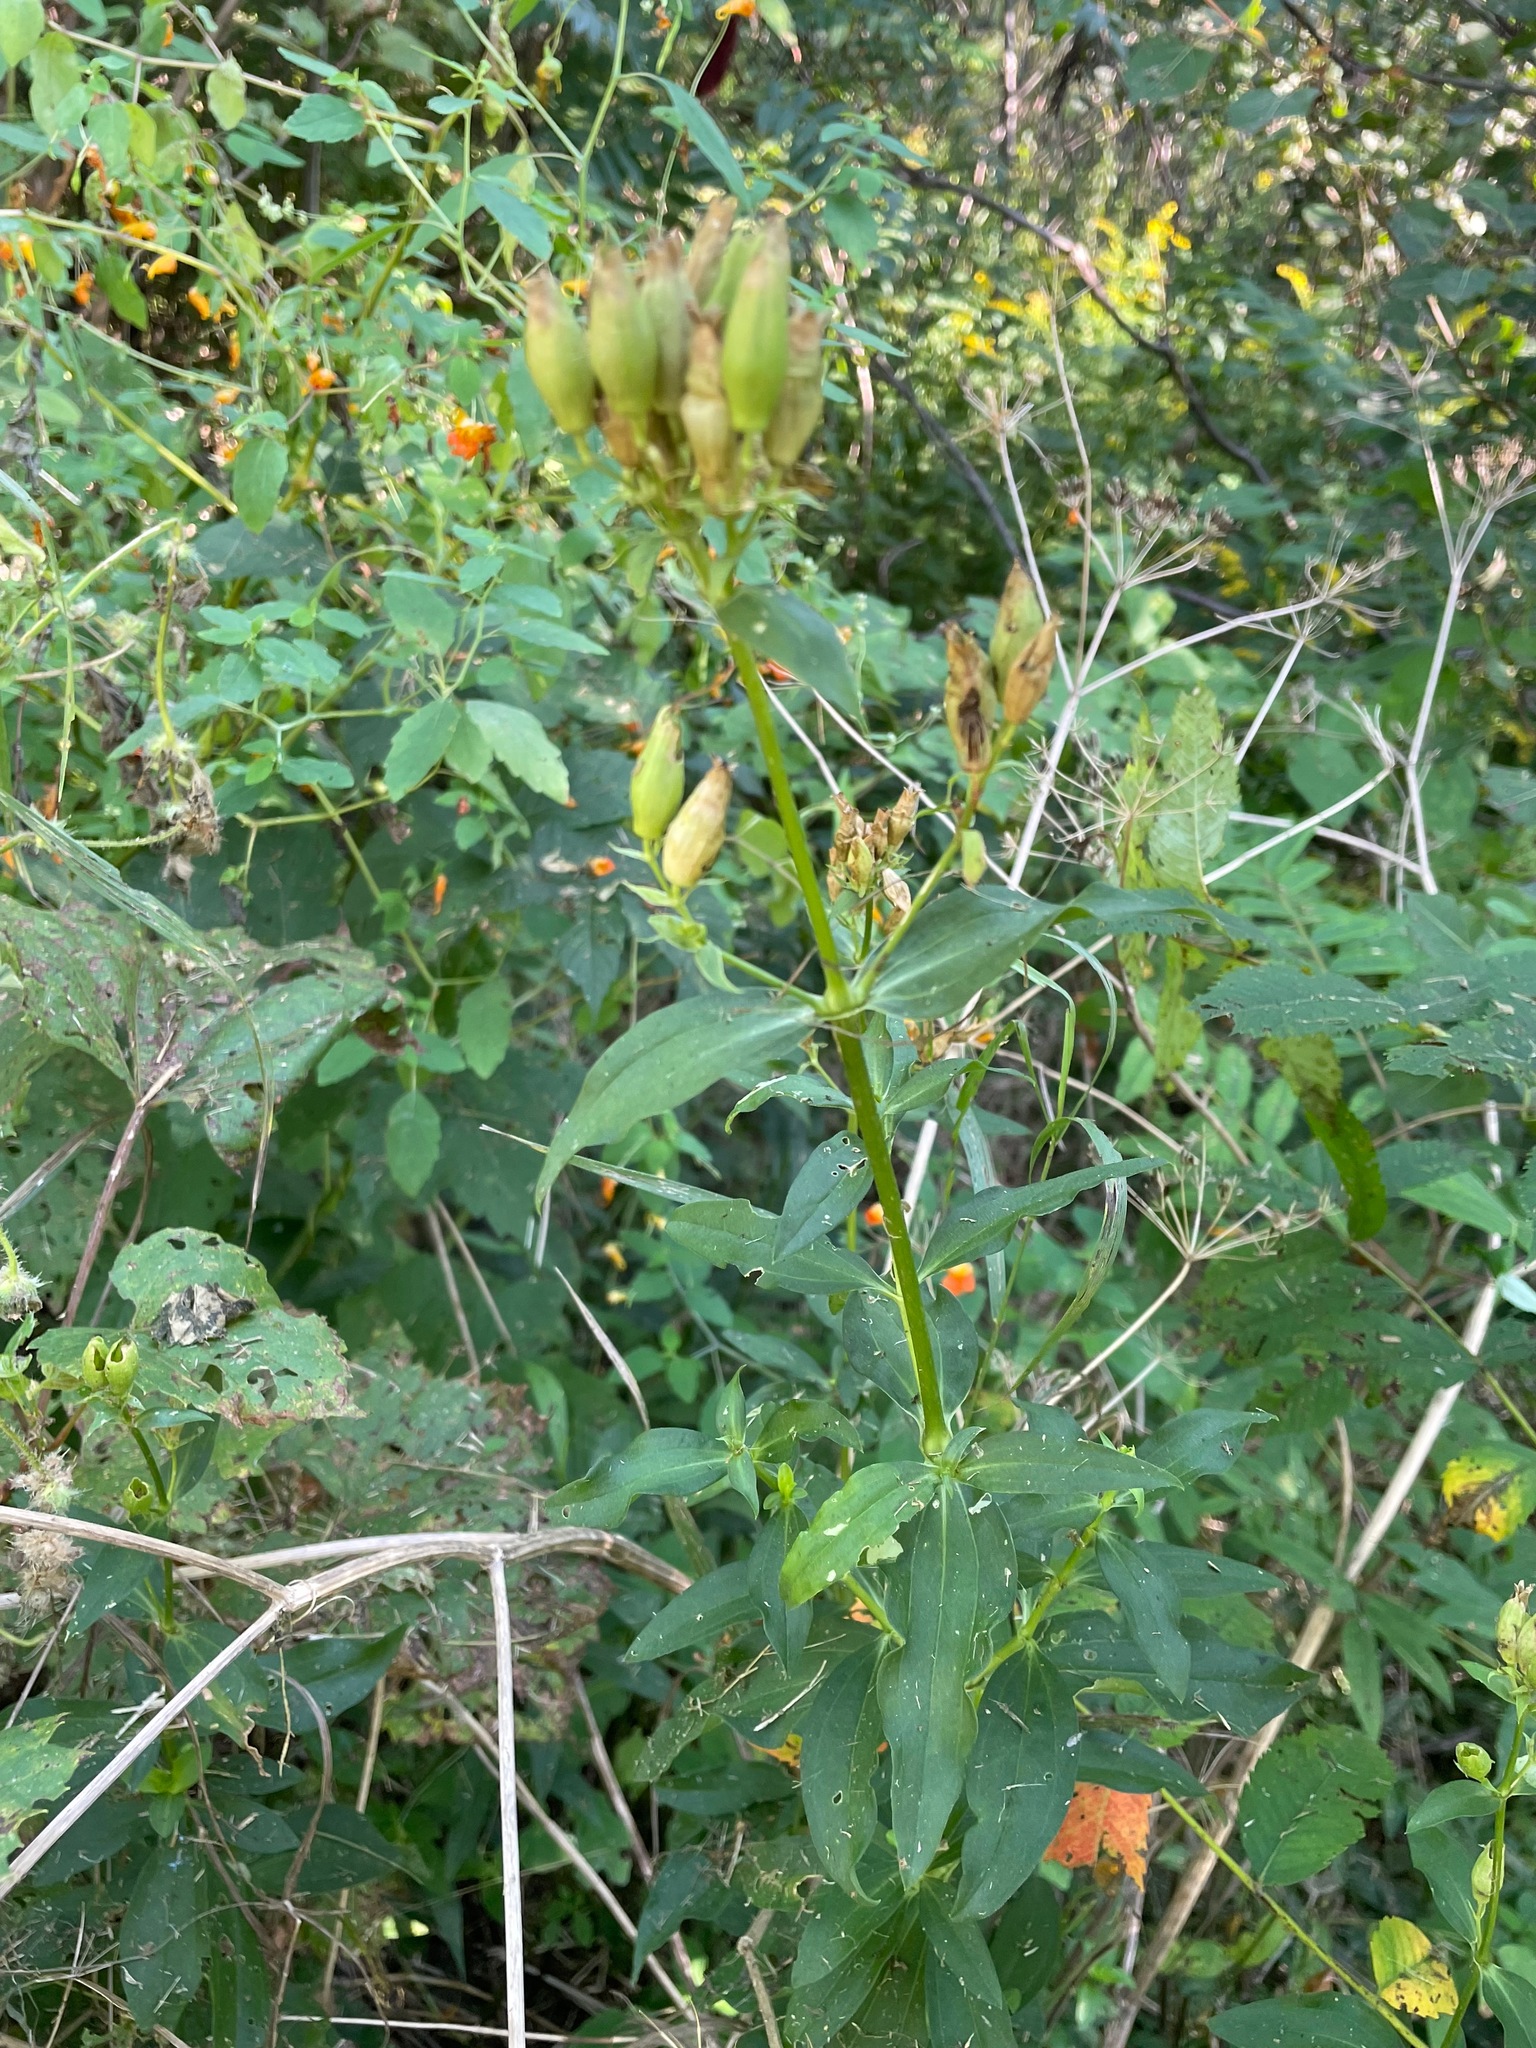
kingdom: Plantae
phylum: Tracheophyta
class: Magnoliopsida
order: Caryophyllales
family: Caryophyllaceae
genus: Saponaria
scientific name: Saponaria officinalis
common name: Soapwort
